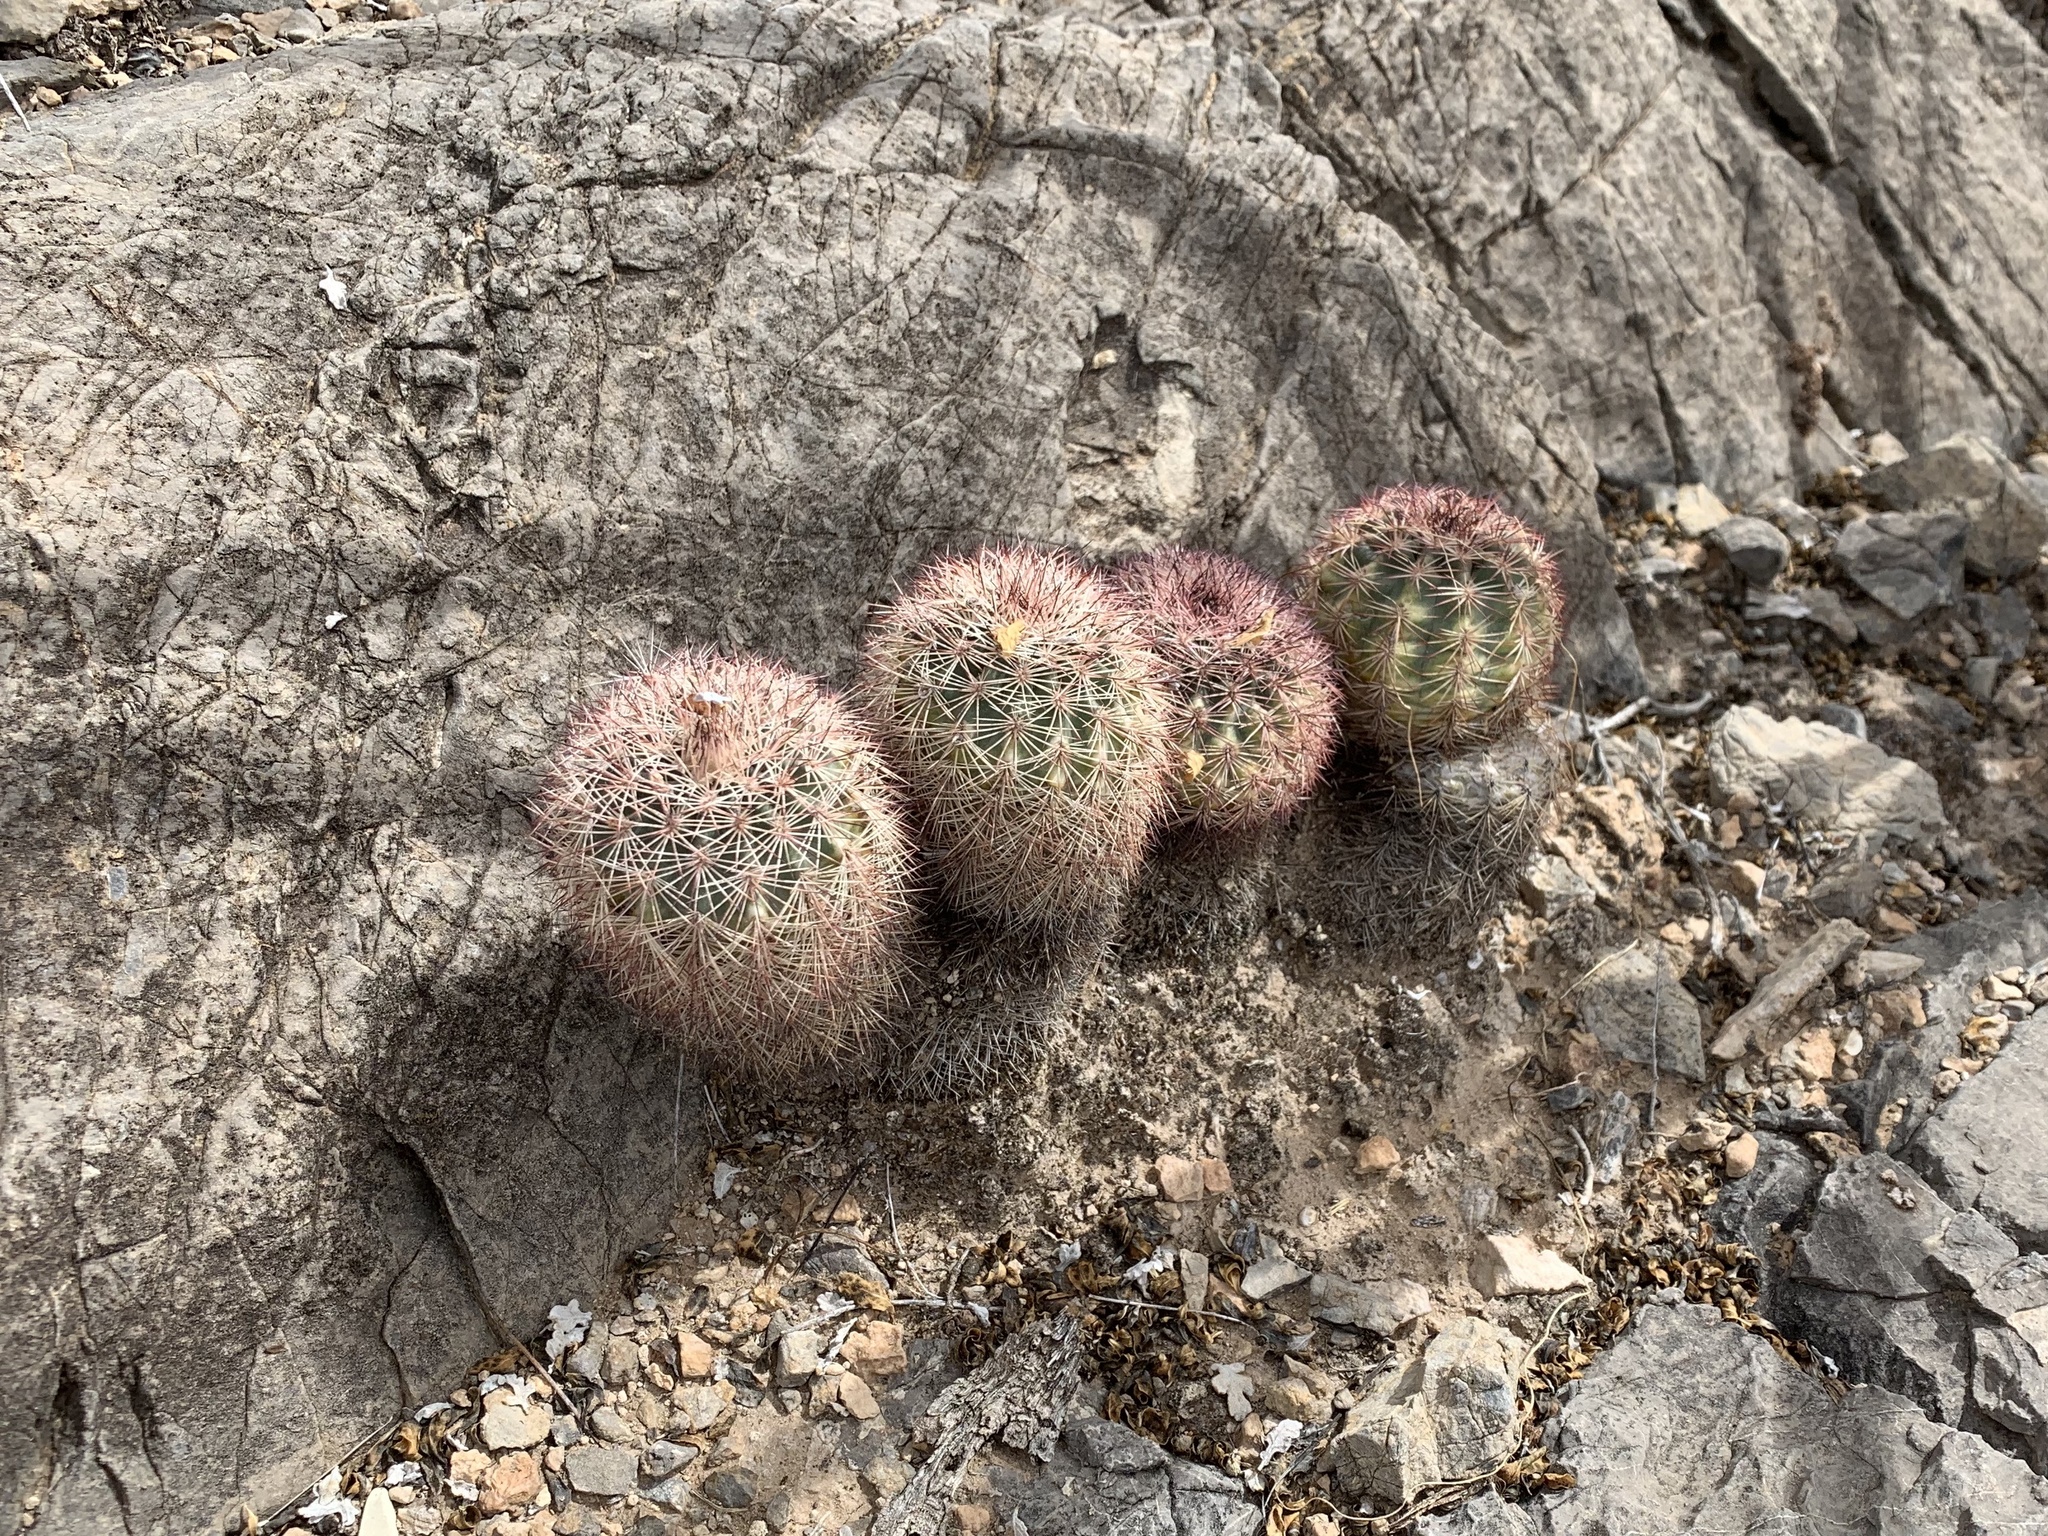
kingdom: Plantae
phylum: Tracheophyta
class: Magnoliopsida
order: Caryophyllales
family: Cactaceae
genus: Echinocereus
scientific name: Echinocereus dasyacanthus
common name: Spiny hedgehog cactus
